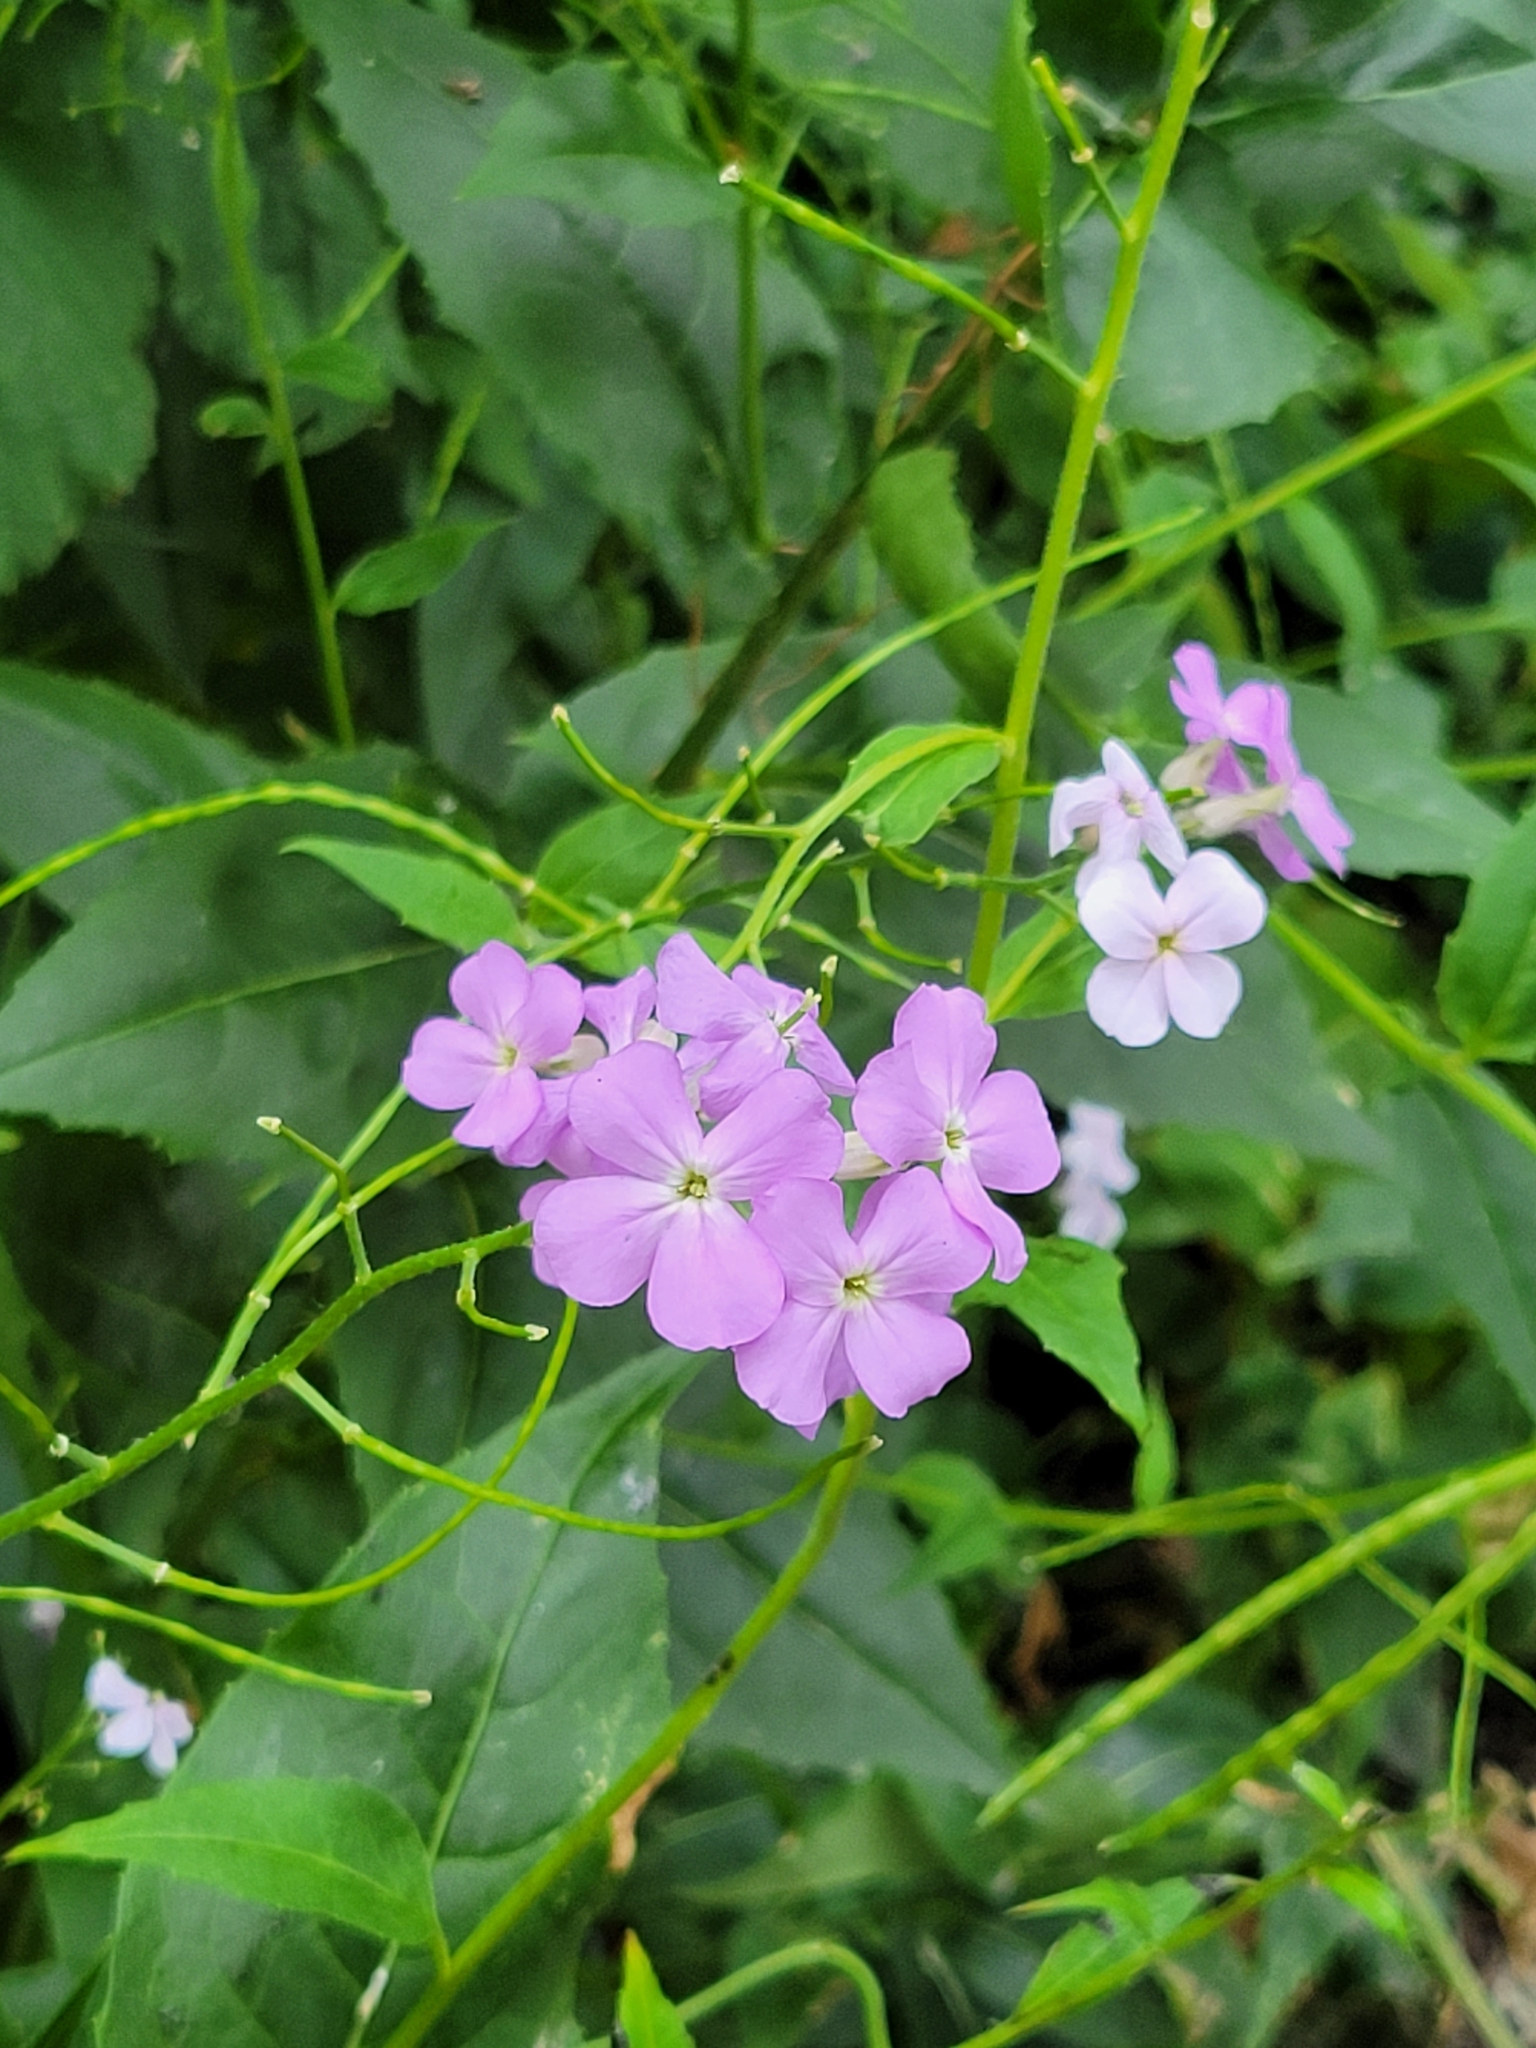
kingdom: Plantae
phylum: Tracheophyta
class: Magnoliopsida
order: Brassicales
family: Brassicaceae
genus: Hesperis
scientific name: Hesperis matronalis
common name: Dame's-violet
